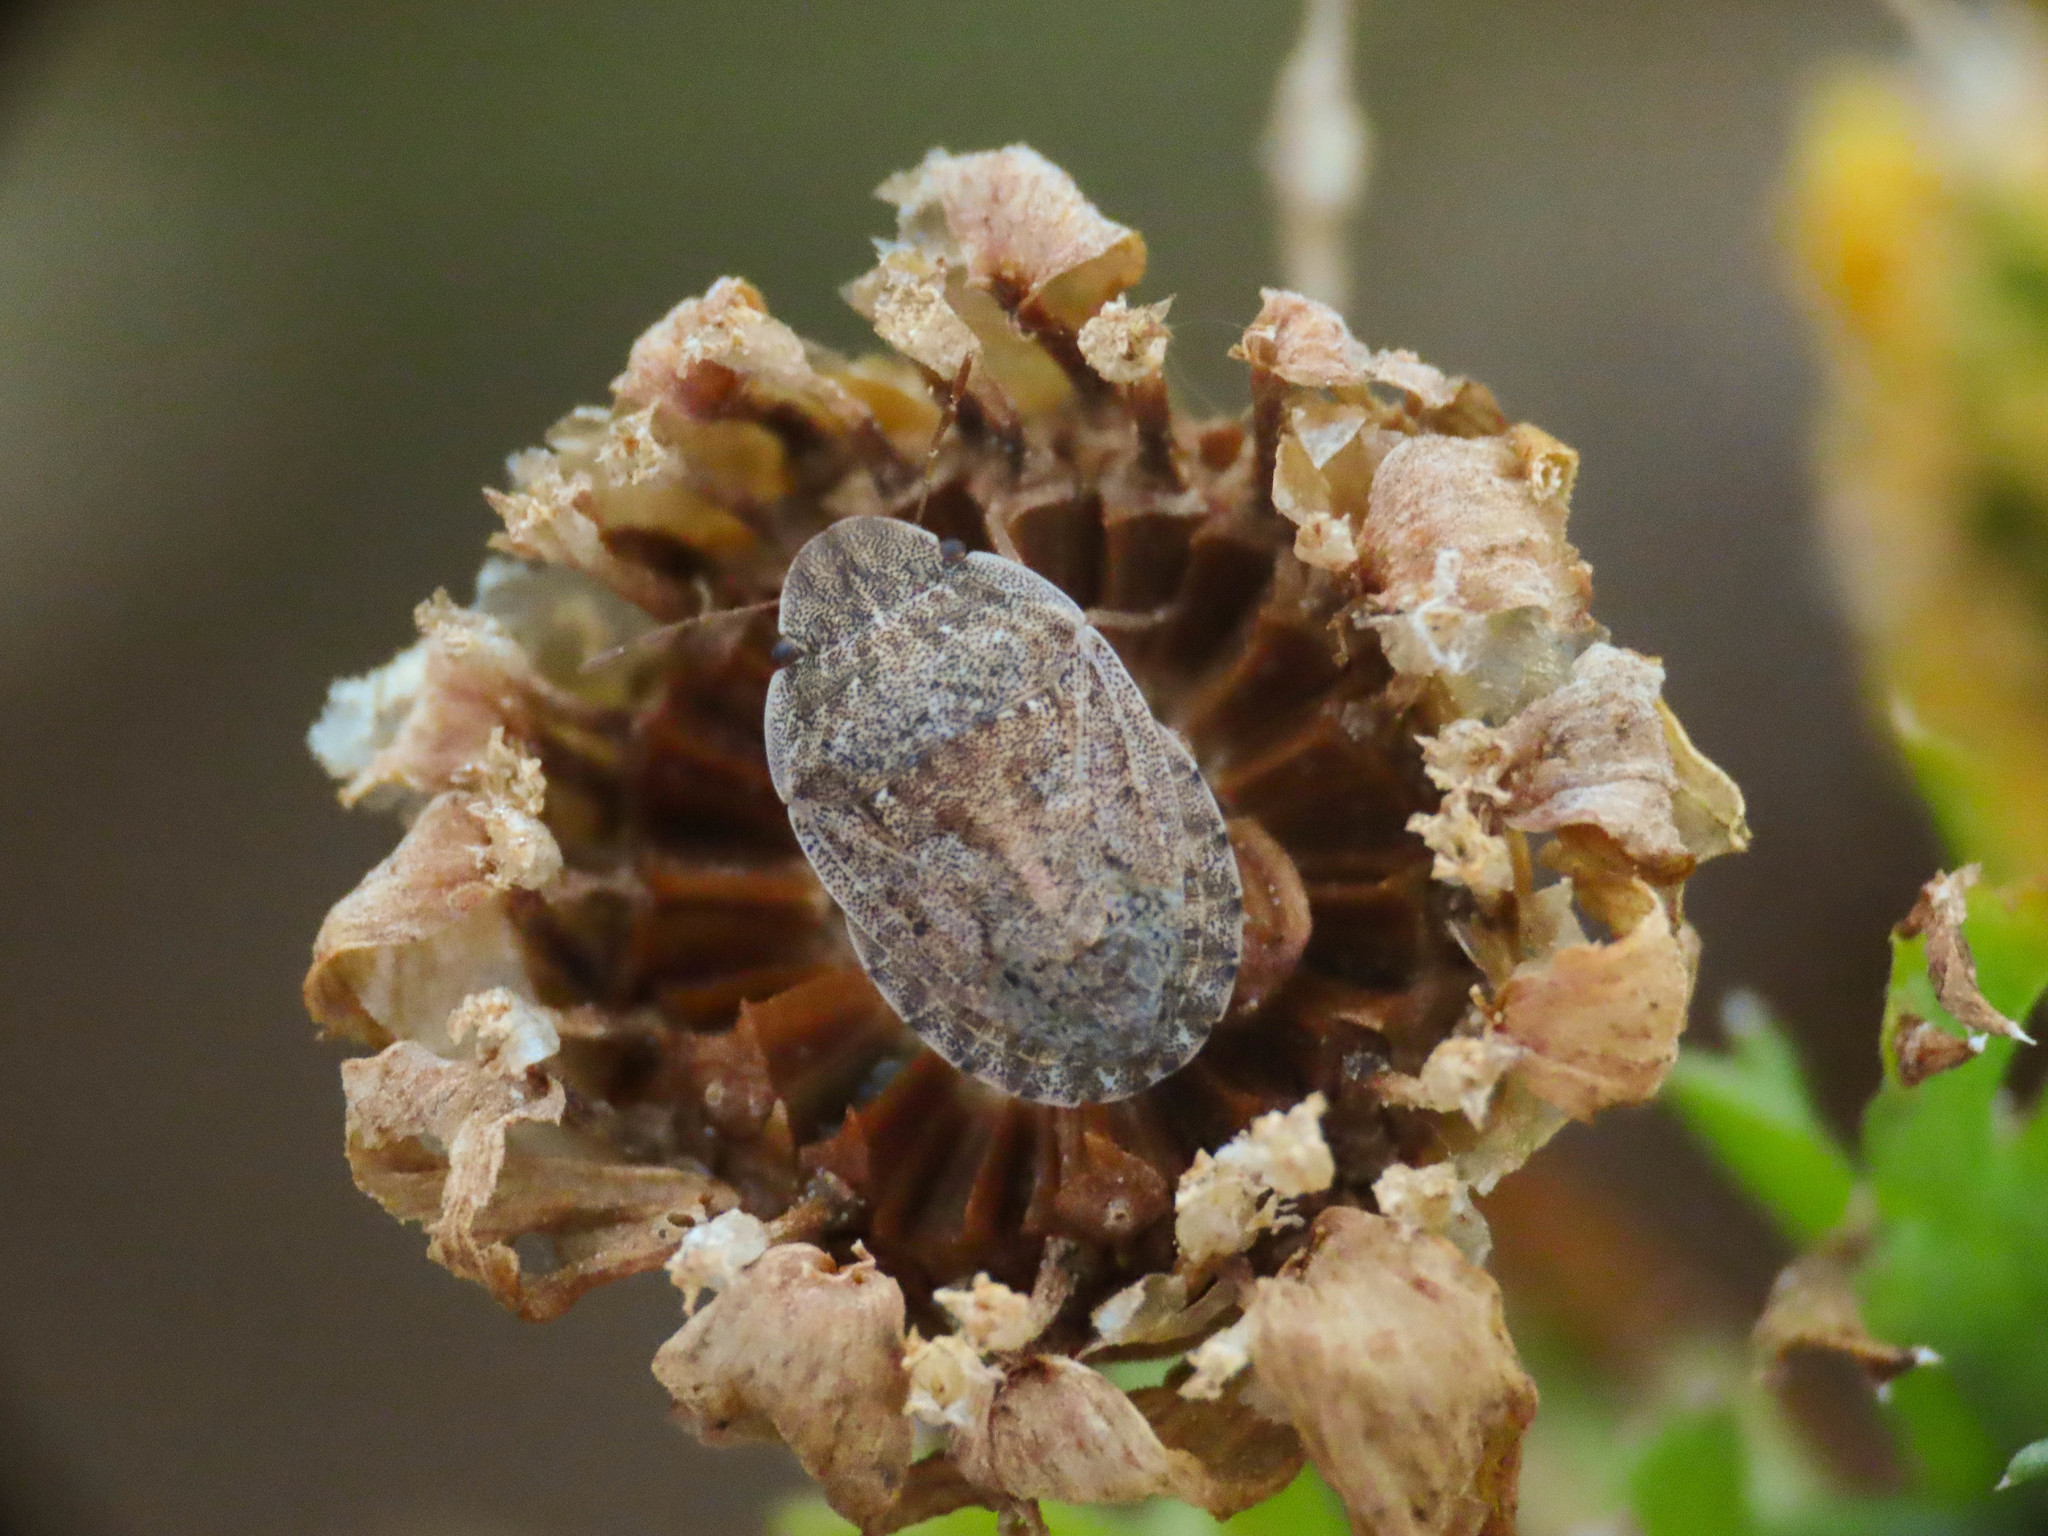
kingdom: Animalia
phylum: Arthropoda
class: Insecta
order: Hemiptera
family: Pentatomidae
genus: Sciocoris
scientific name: Sciocoris helferi
